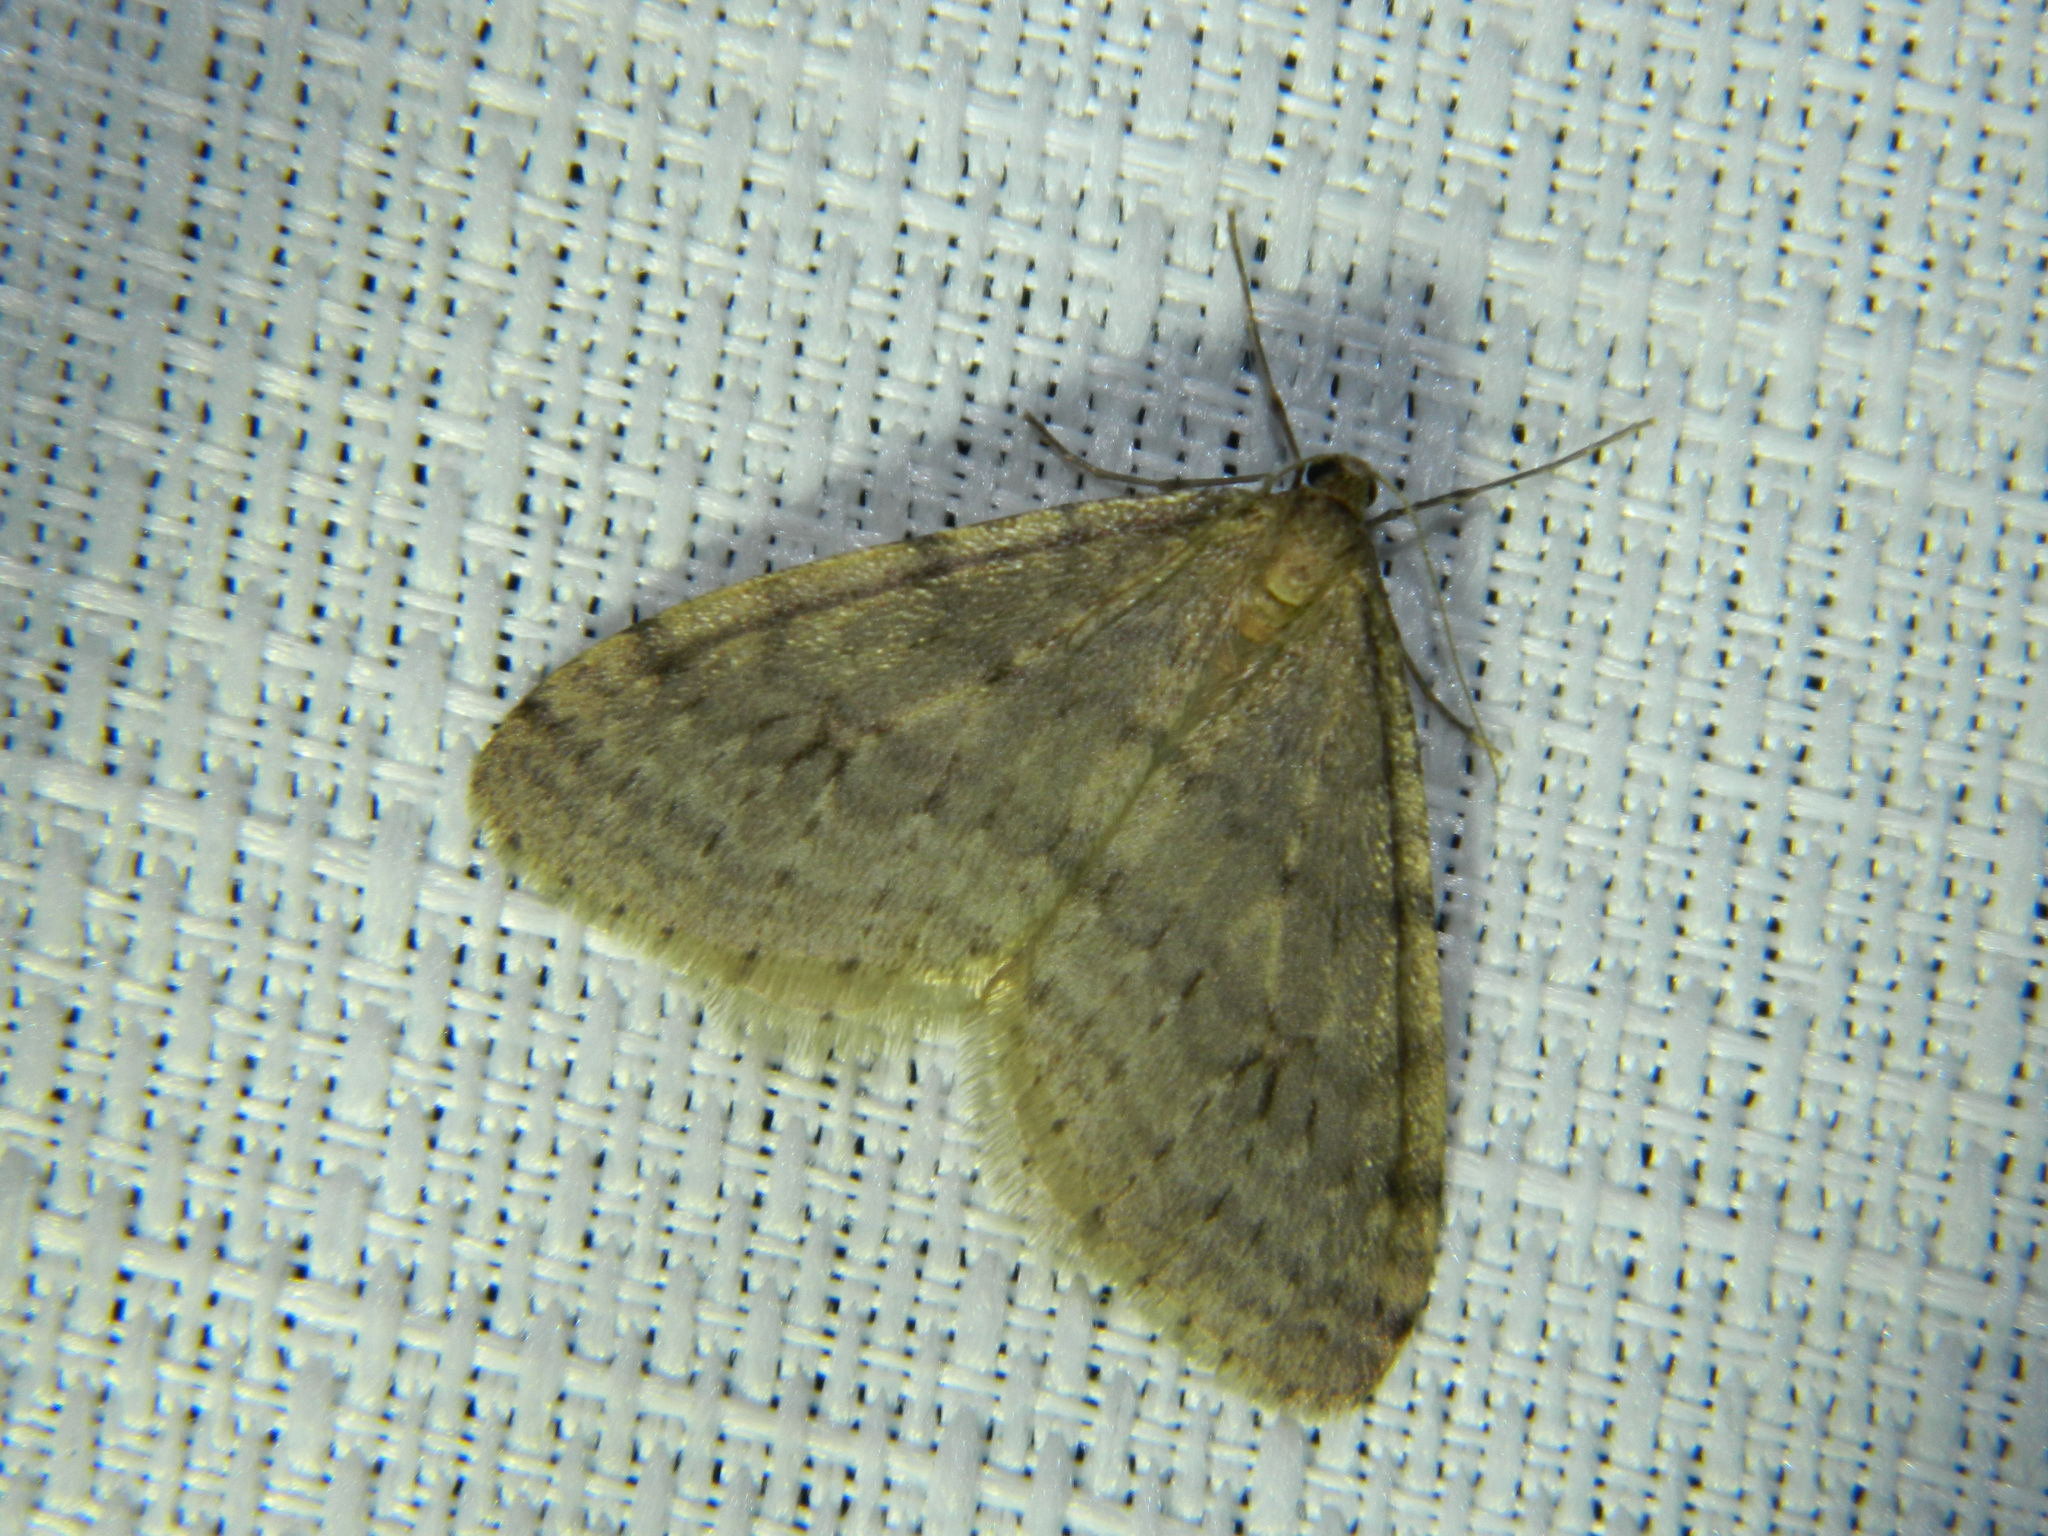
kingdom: Animalia
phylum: Arthropoda
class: Insecta
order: Lepidoptera
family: Geometridae
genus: Operophtera
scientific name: Operophtera bruceata
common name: Bruce spanworm
